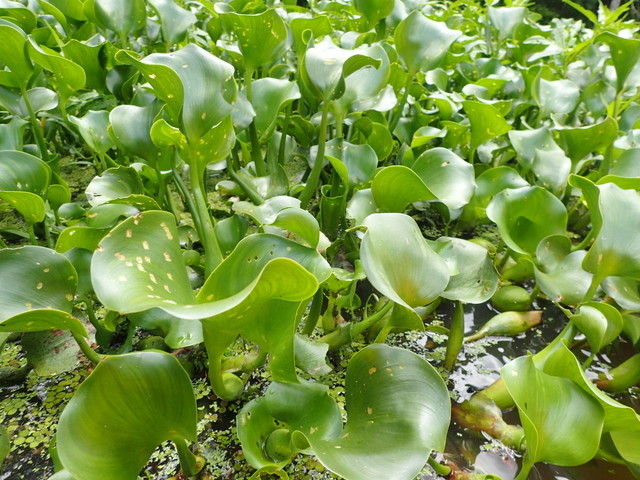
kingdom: Plantae
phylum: Tracheophyta
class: Liliopsida
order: Commelinales
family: Pontederiaceae
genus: Pontederia
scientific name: Pontederia crassipes
